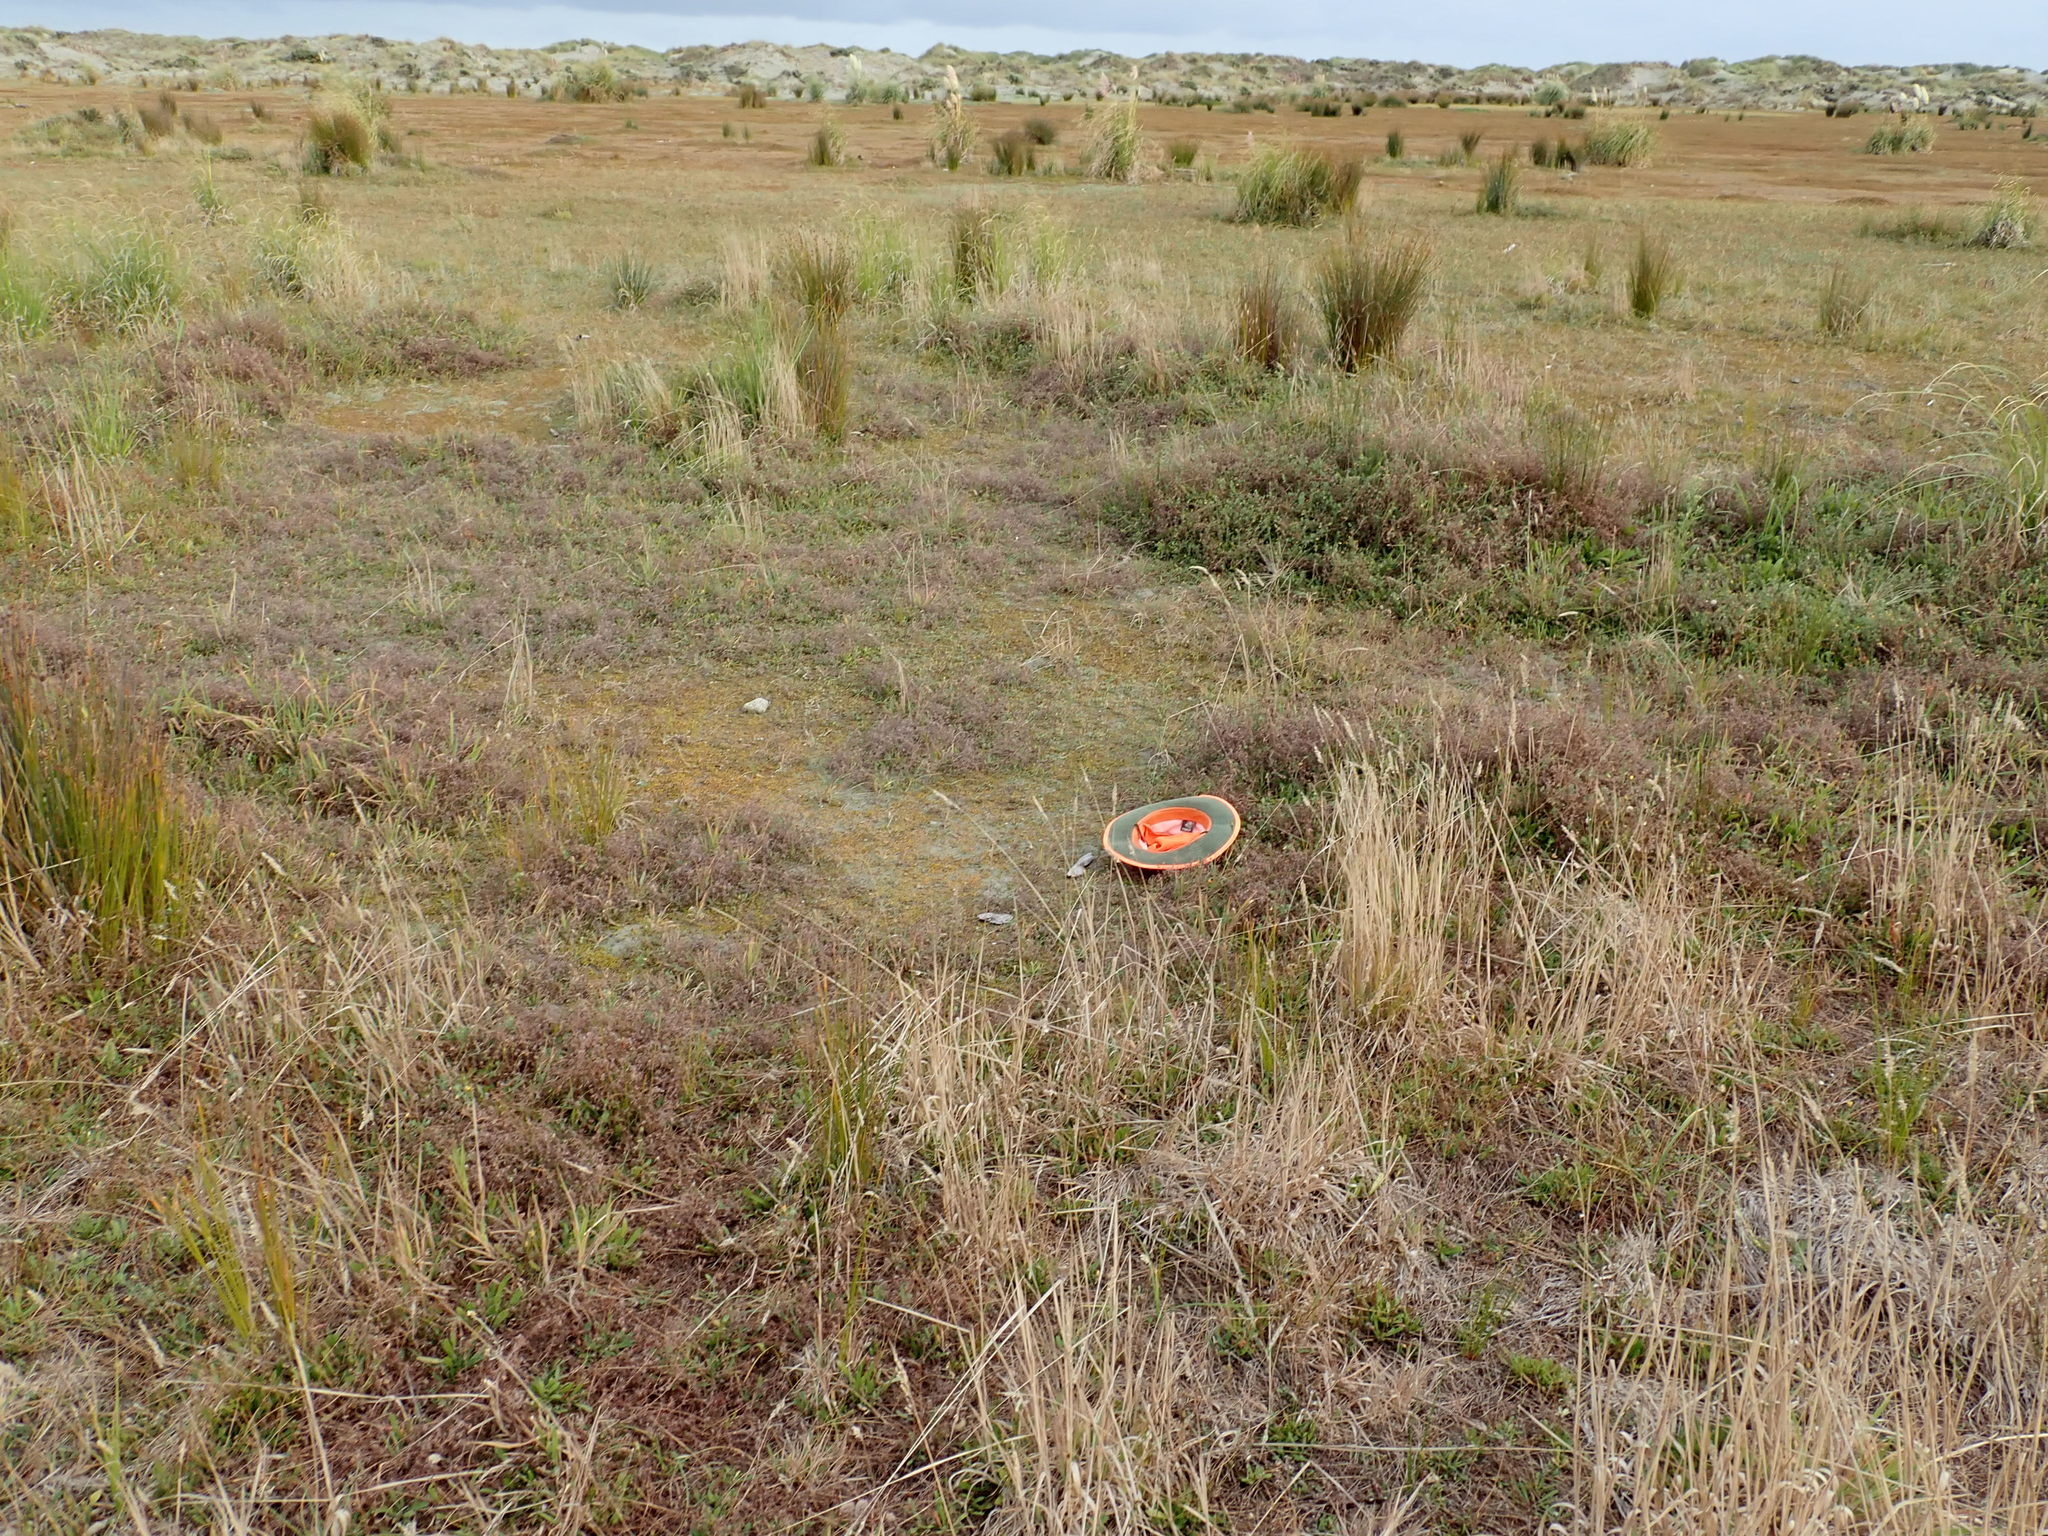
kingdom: Plantae
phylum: Tracheophyta
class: Magnoliopsida
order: Fabales
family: Fabaceae
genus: Lotus
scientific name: Lotus subbiflorus
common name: Hairy bird's-foot trefoil
